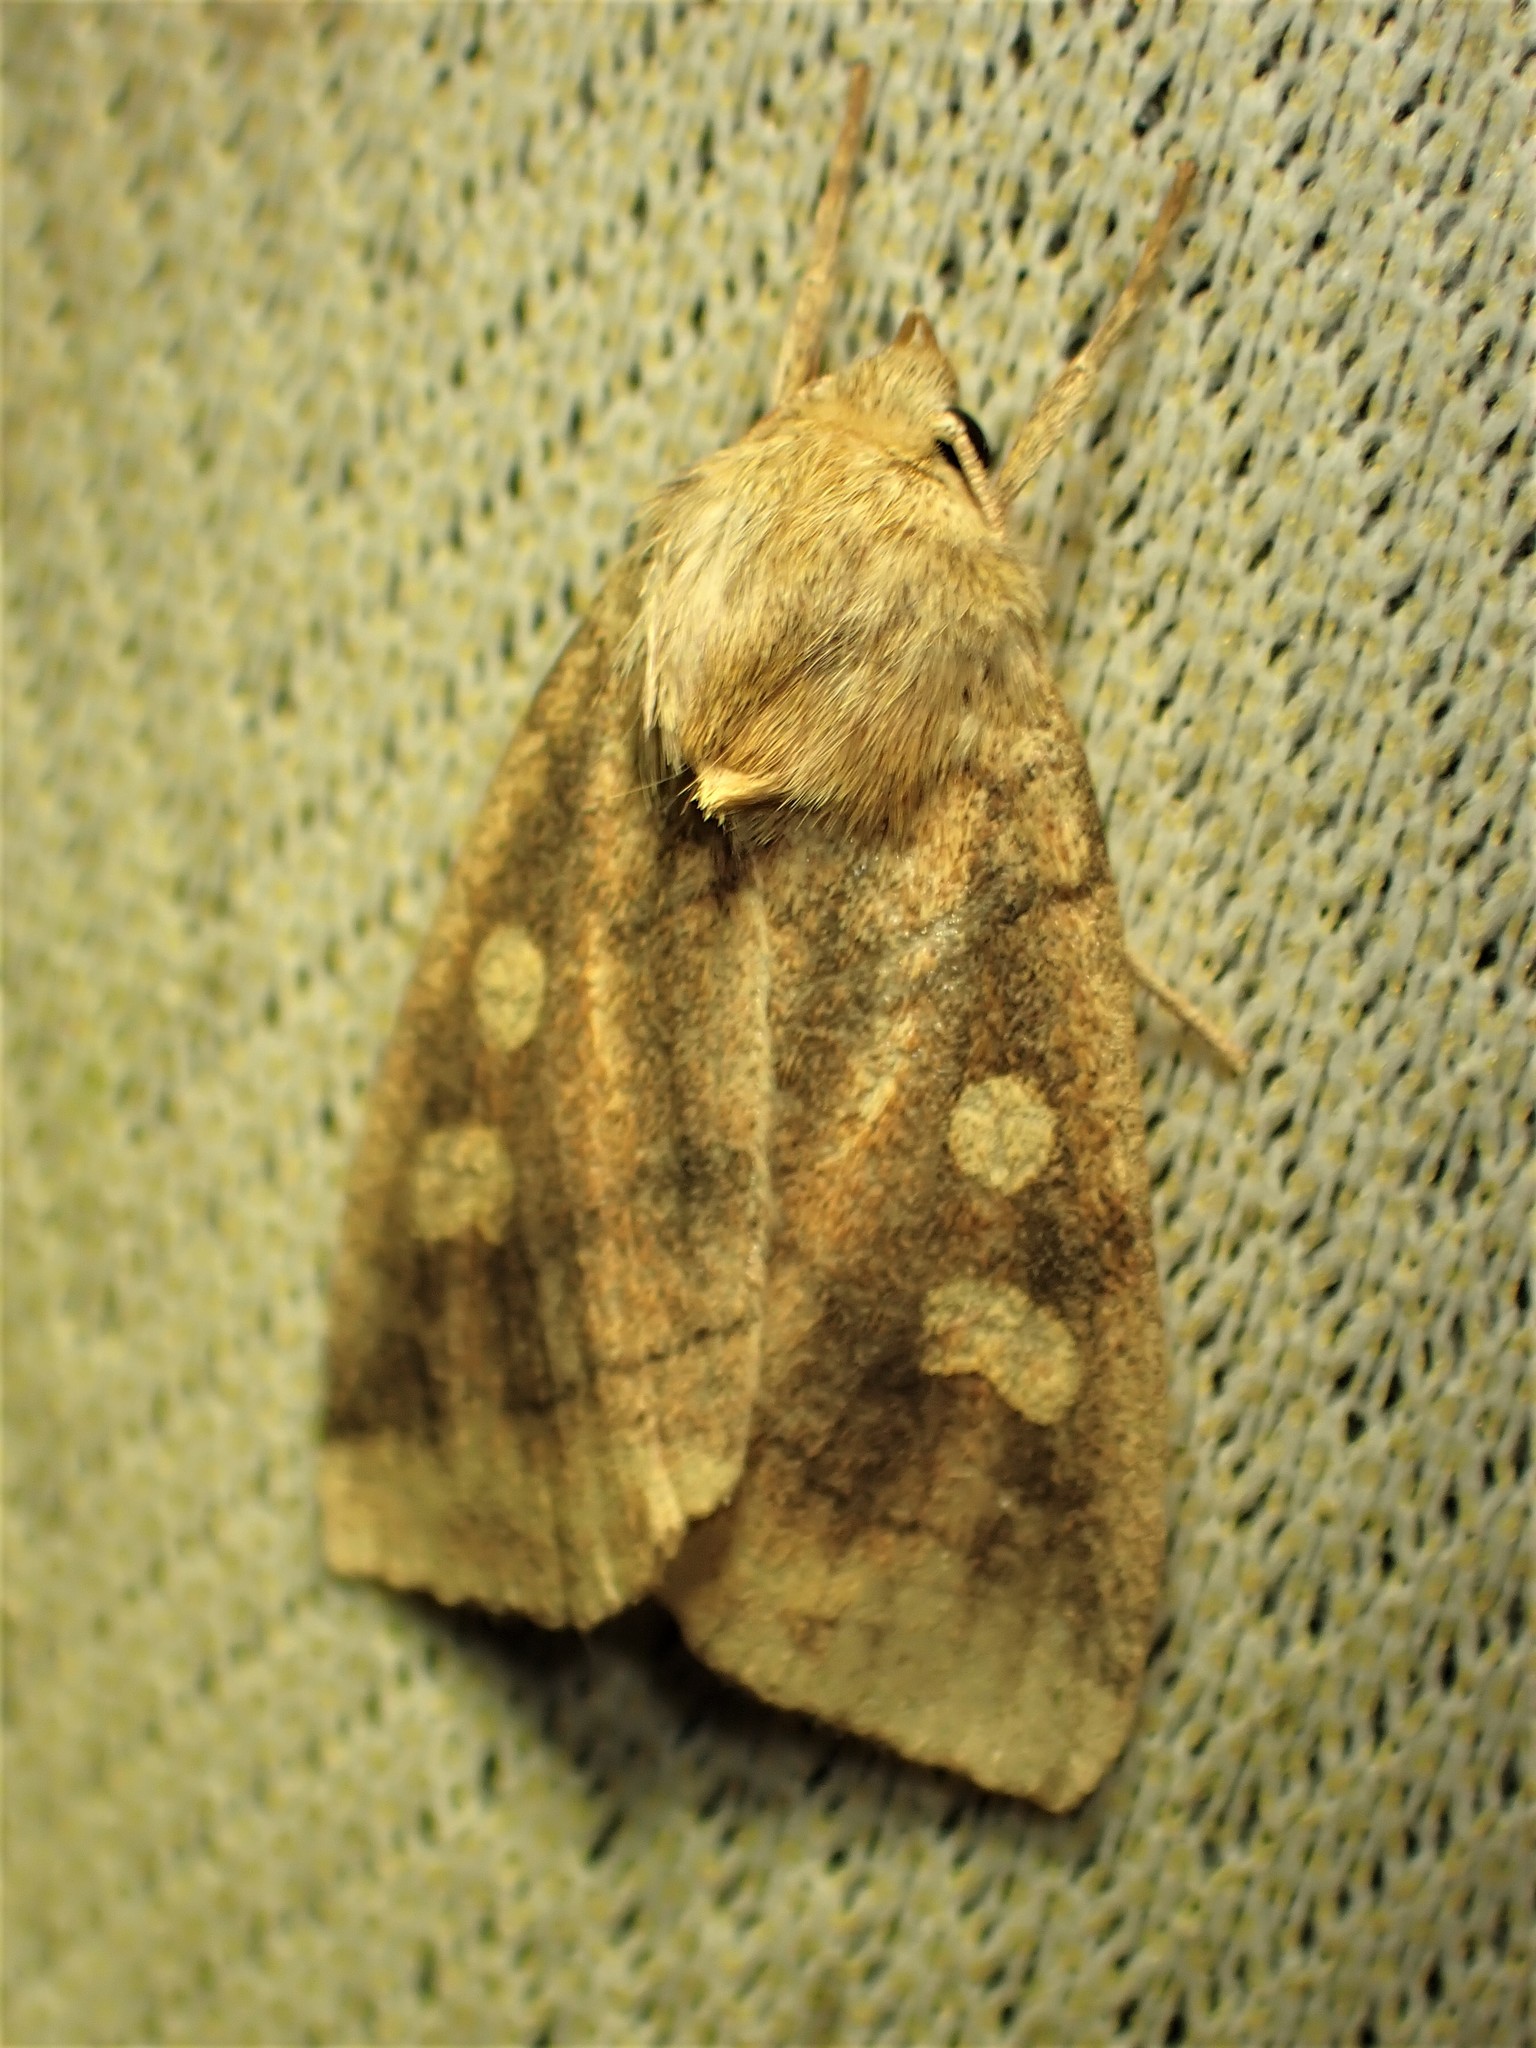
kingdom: Animalia
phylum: Arthropoda
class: Insecta
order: Lepidoptera
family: Noctuidae
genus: Enargia
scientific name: Enargia decolor
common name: Aspen twoleaf tier moth
